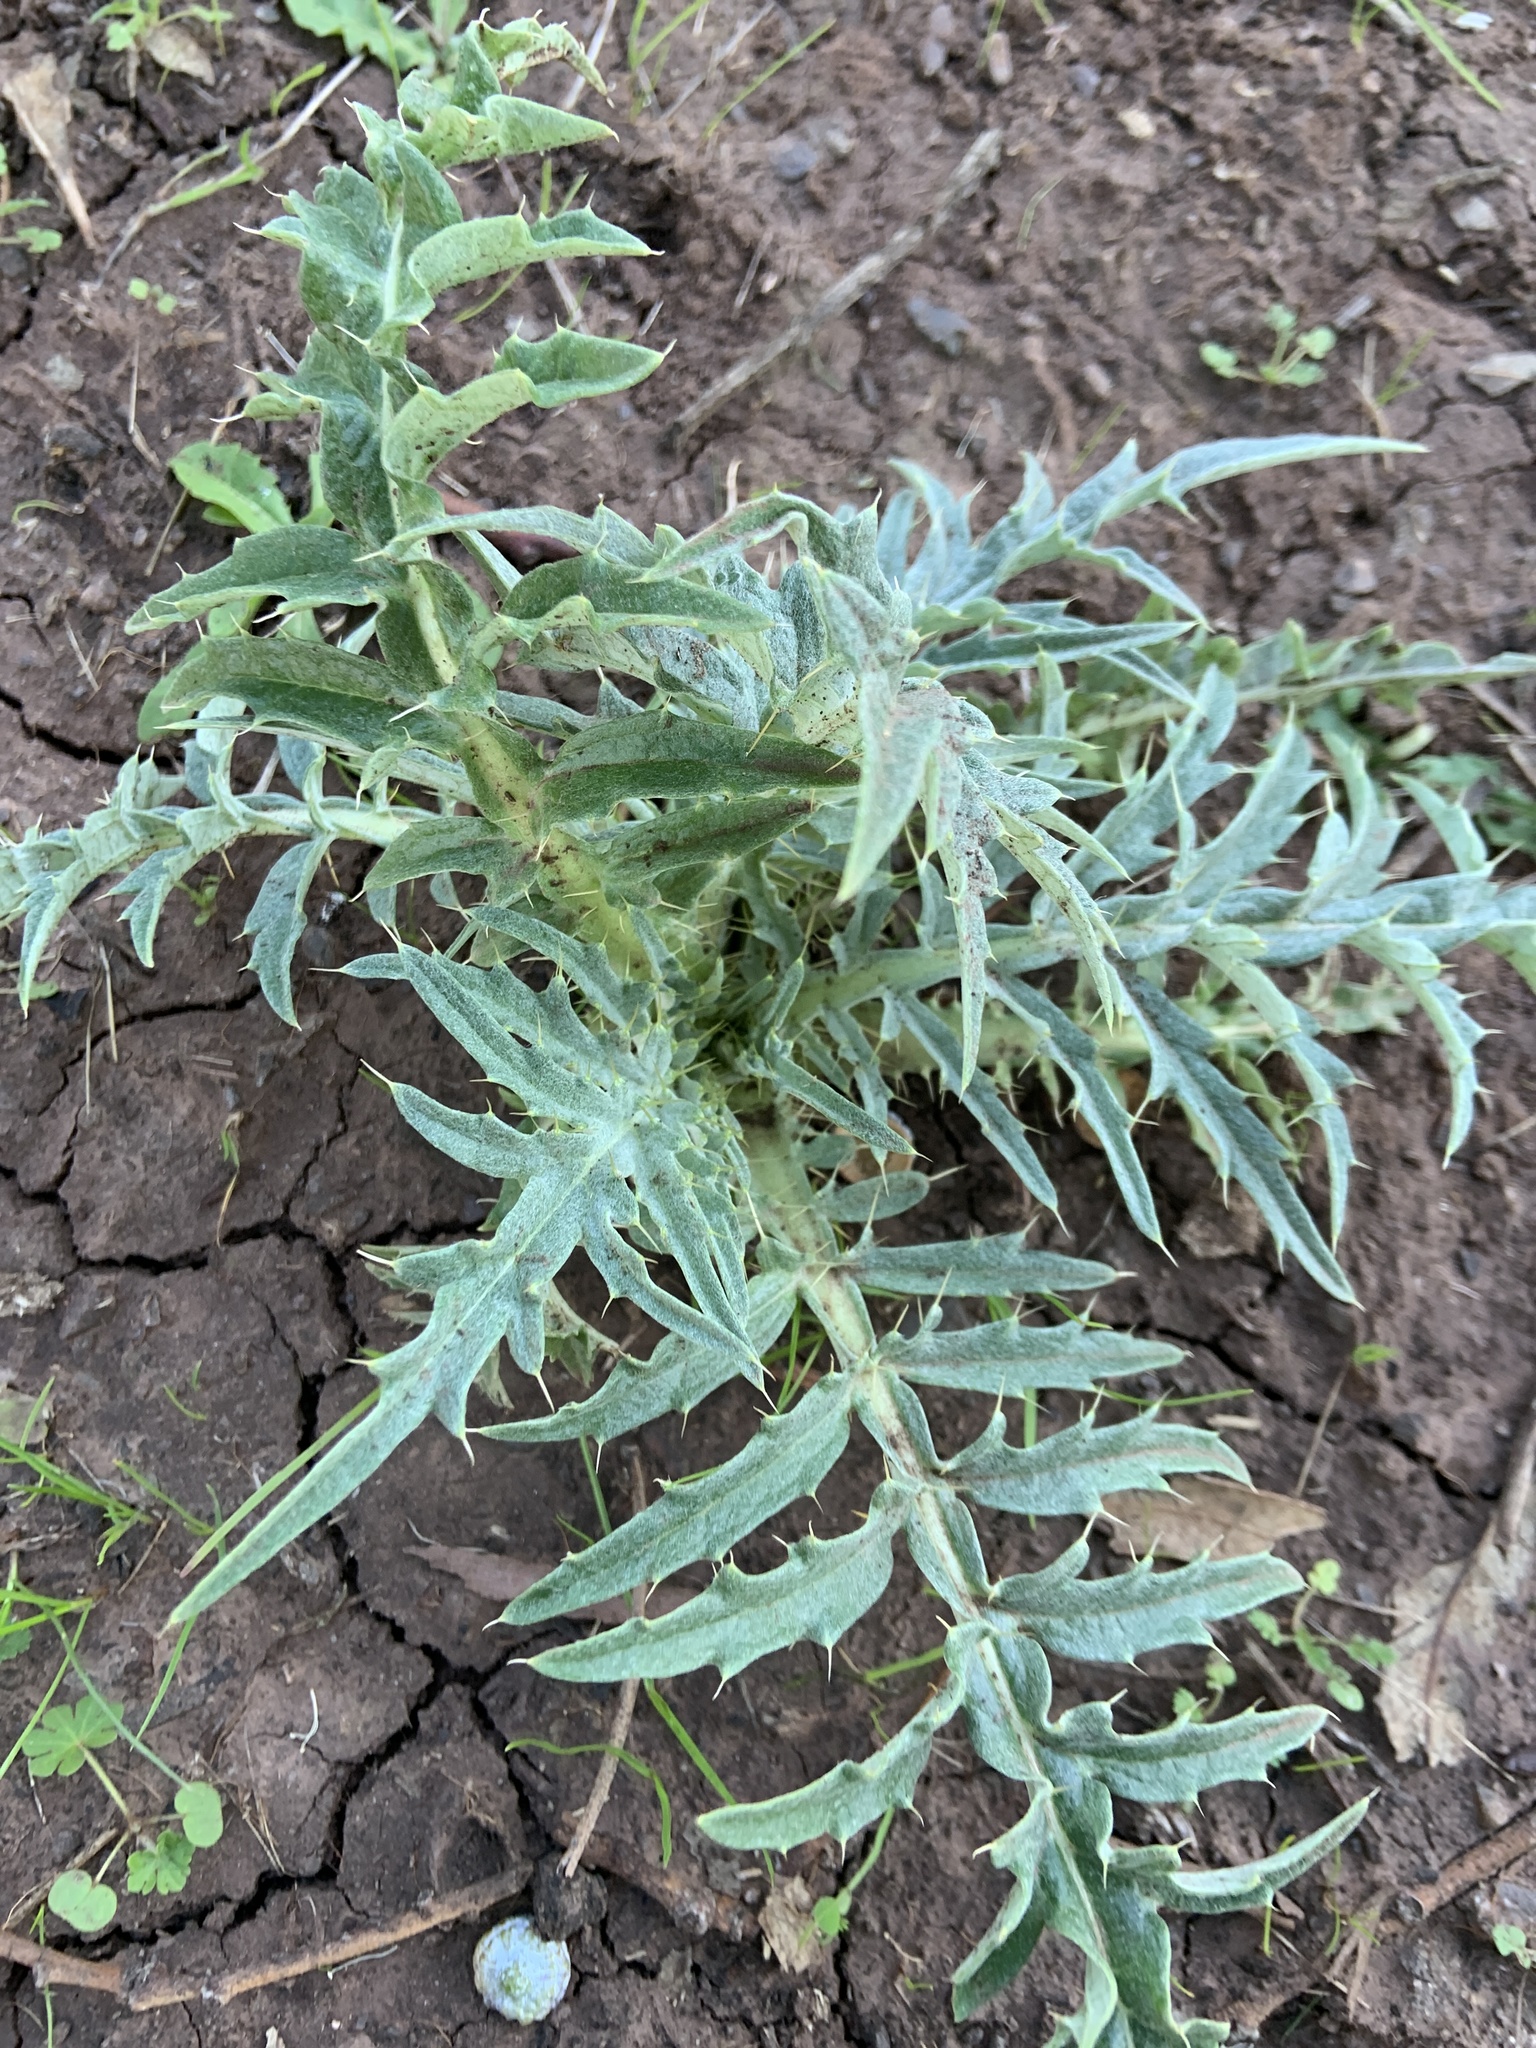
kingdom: Plantae
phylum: Tracheophyta
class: Magnoliopsida
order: Asterales
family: Asteraceae
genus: Cynara
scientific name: Cynara cardunculus
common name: Globe artichoke
